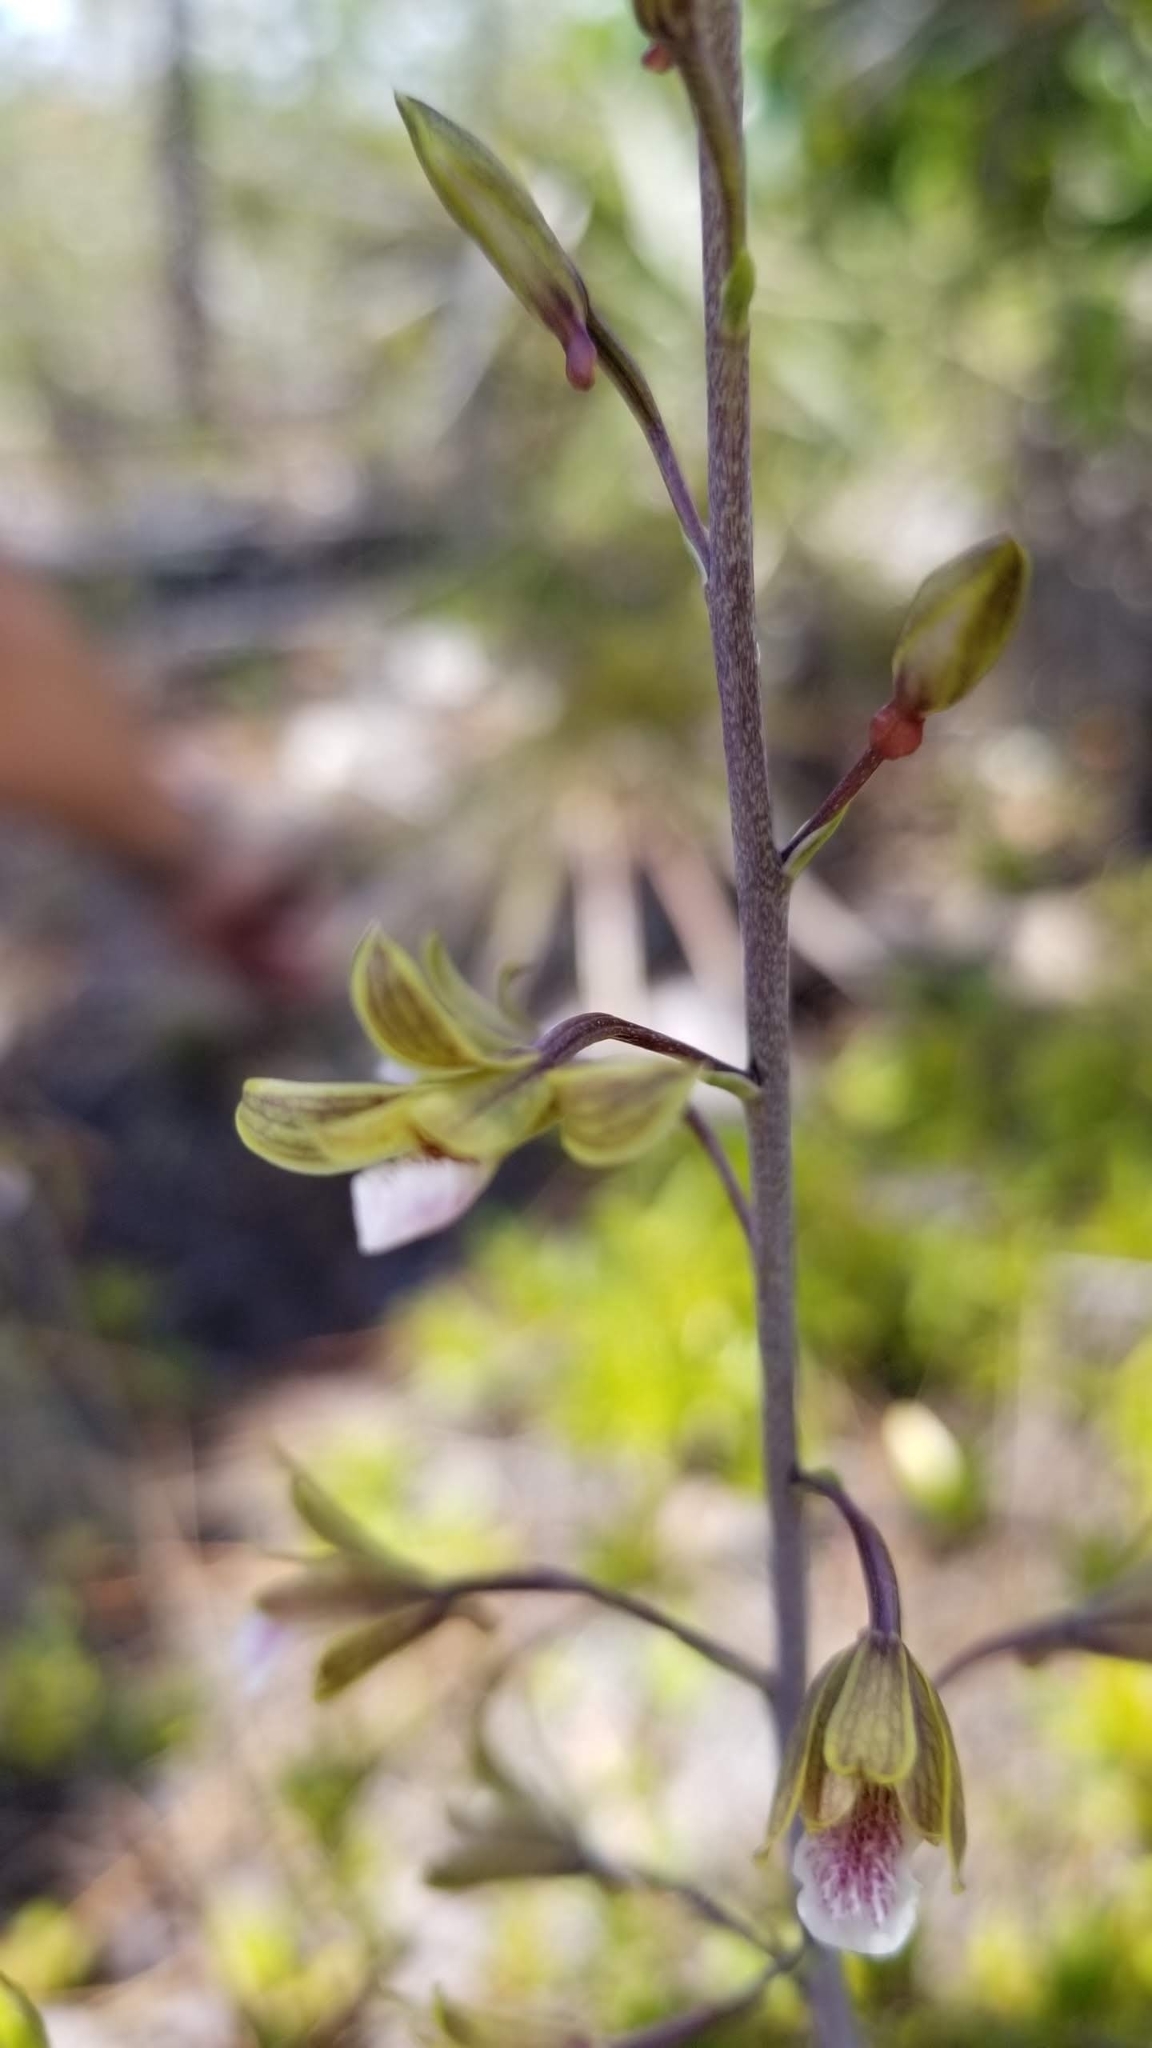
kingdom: Plantae
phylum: Tracheophyta
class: Liliopsida
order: Asparagales
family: Orchidaceae
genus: Eulophia
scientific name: Eulophia graminea
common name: Orchid
